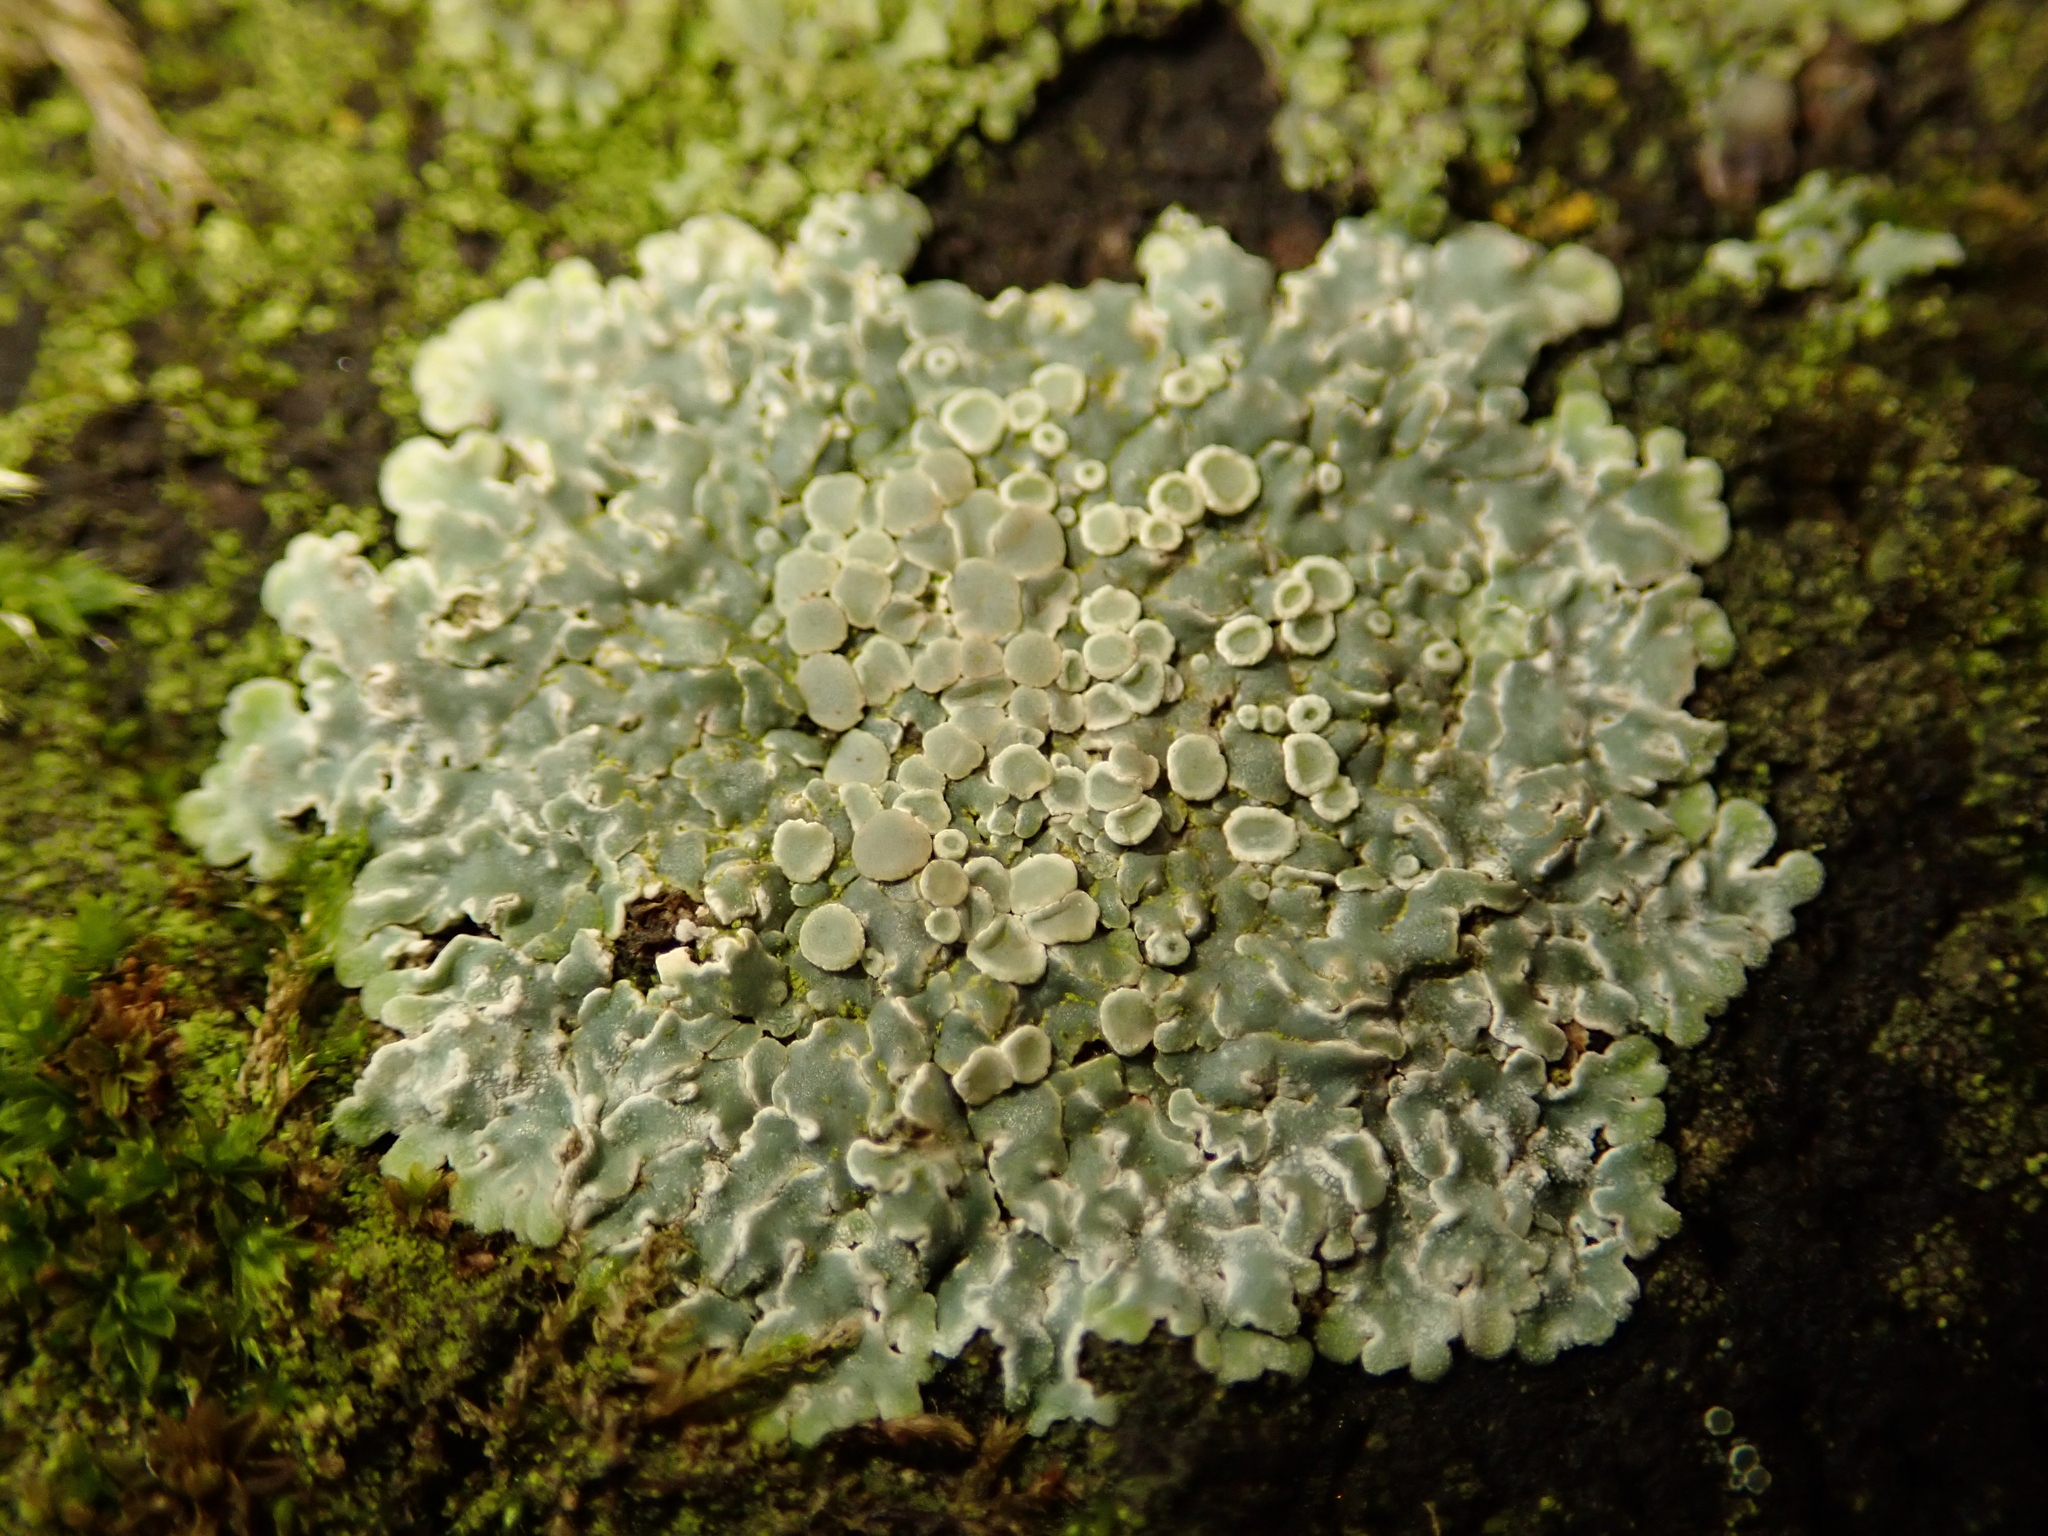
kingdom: Fungi
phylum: Ascomycota
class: Lecanoromycetes
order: Lecanorales
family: Lecanoraceae
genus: Protoparmeliopsis
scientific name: Protoparmeliopsis muralis
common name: Stonewall rim lichen
